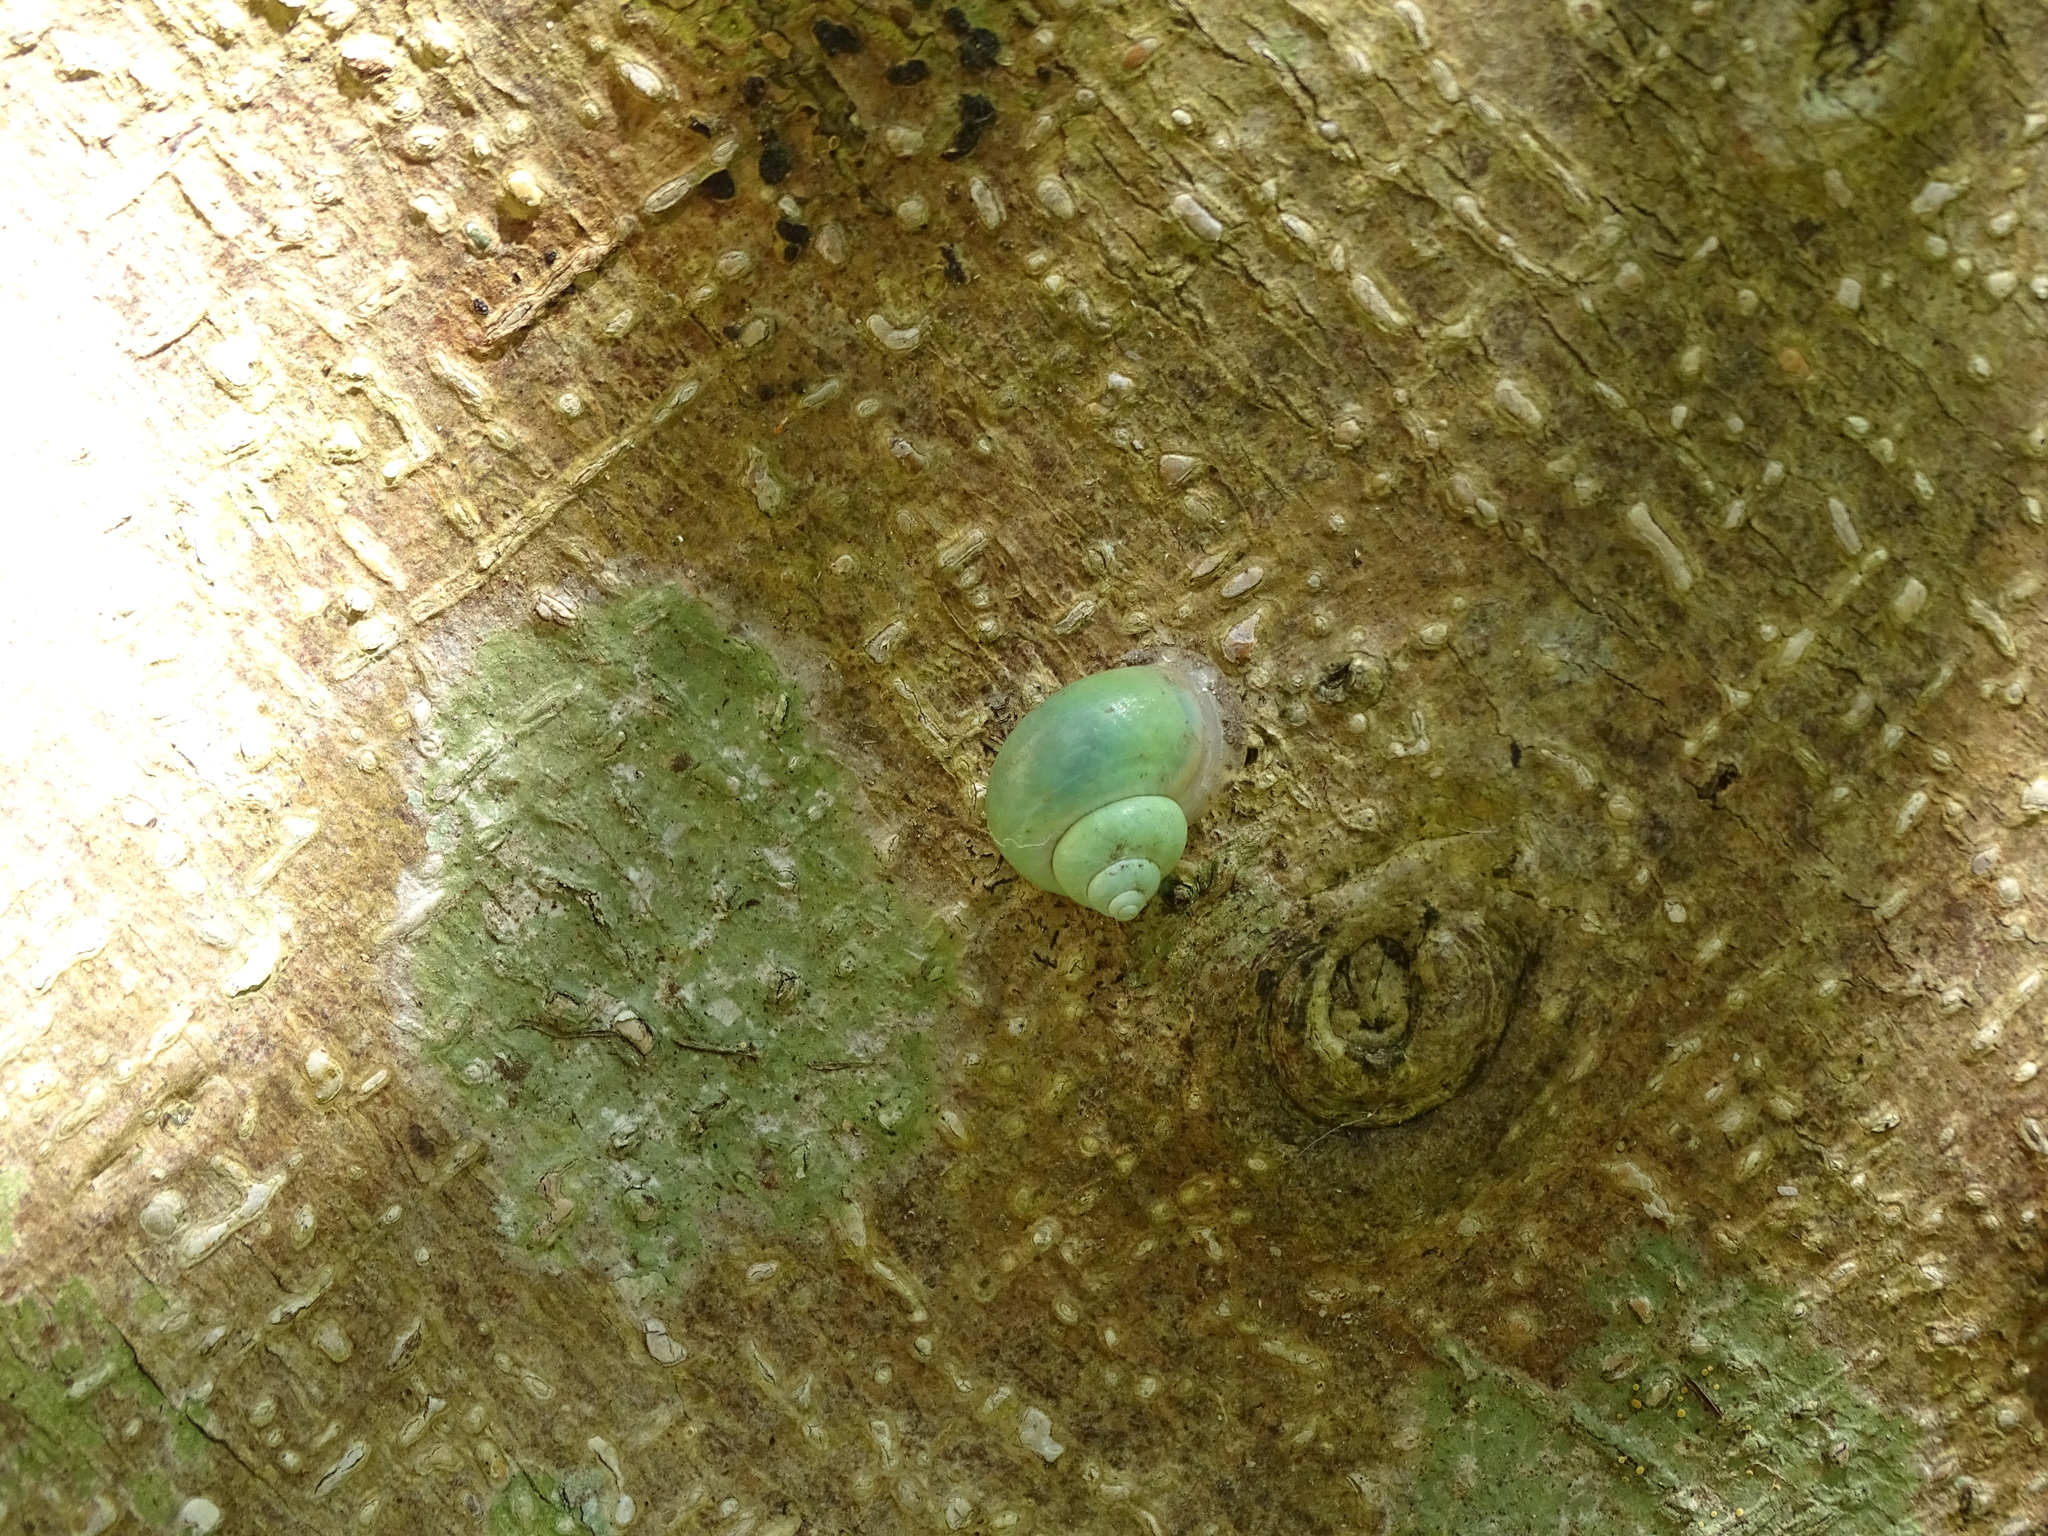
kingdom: Animalia
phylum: Mollusca
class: Gastropoda
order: Architaenioglossa
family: Cyclophoridae
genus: Leptopoma
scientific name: Leptopoma nitidum
